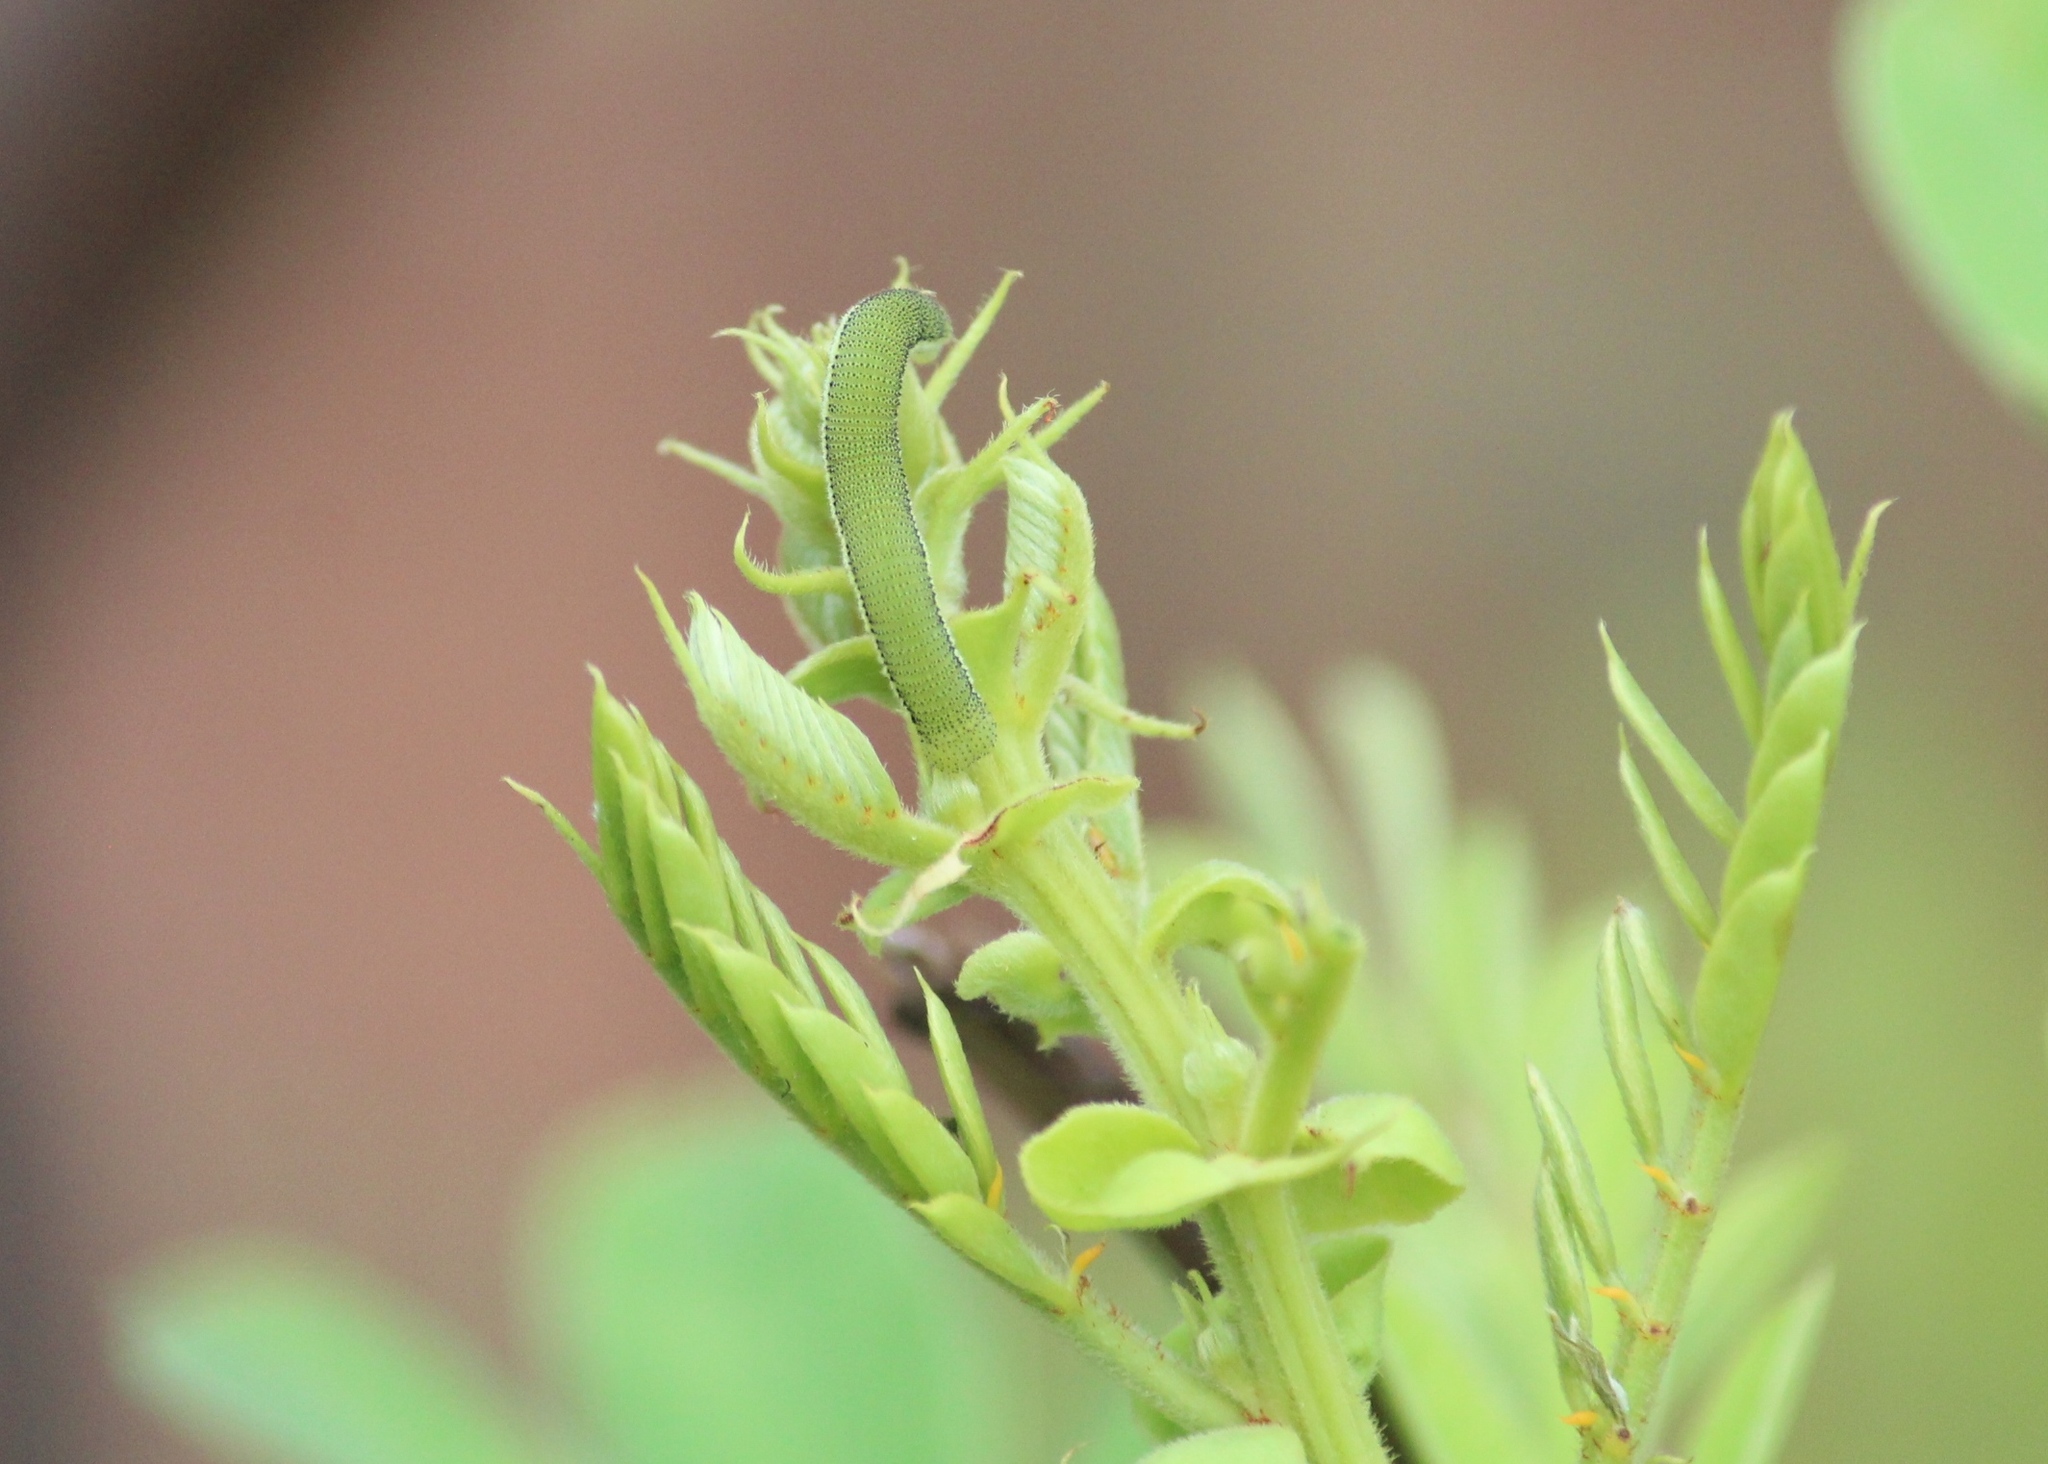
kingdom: Animalia
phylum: Arthropoda
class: Insecta
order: Lepidoptera
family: Pieridae
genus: Catopsilia
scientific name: Catopsilia pomona
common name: Common emigrant
